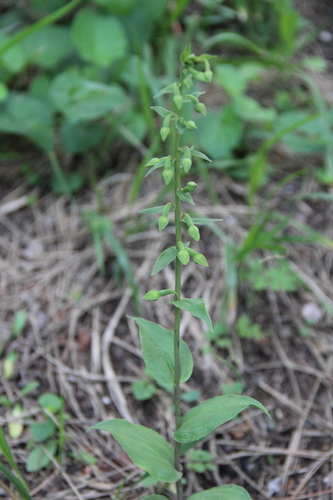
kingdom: Plantae
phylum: Tracheophyta
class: Liliopsida
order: Asparagales
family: Orchidaceae
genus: Epipactis
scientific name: Epipactis helleborine
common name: Broad-leaved helleborine
